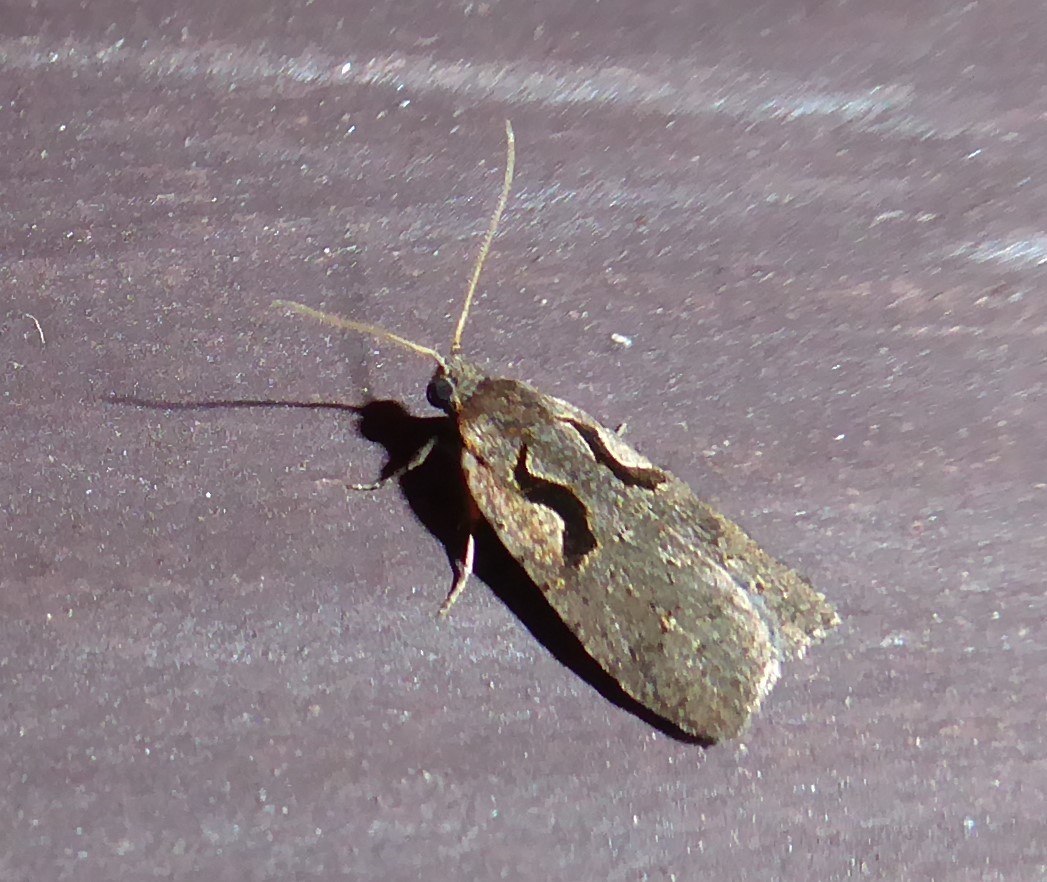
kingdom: Animalia
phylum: Arthropoda
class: Insecta
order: Lepidoptera
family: Tortricidae
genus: Cnephasia
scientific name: Cnephasia jactatana
